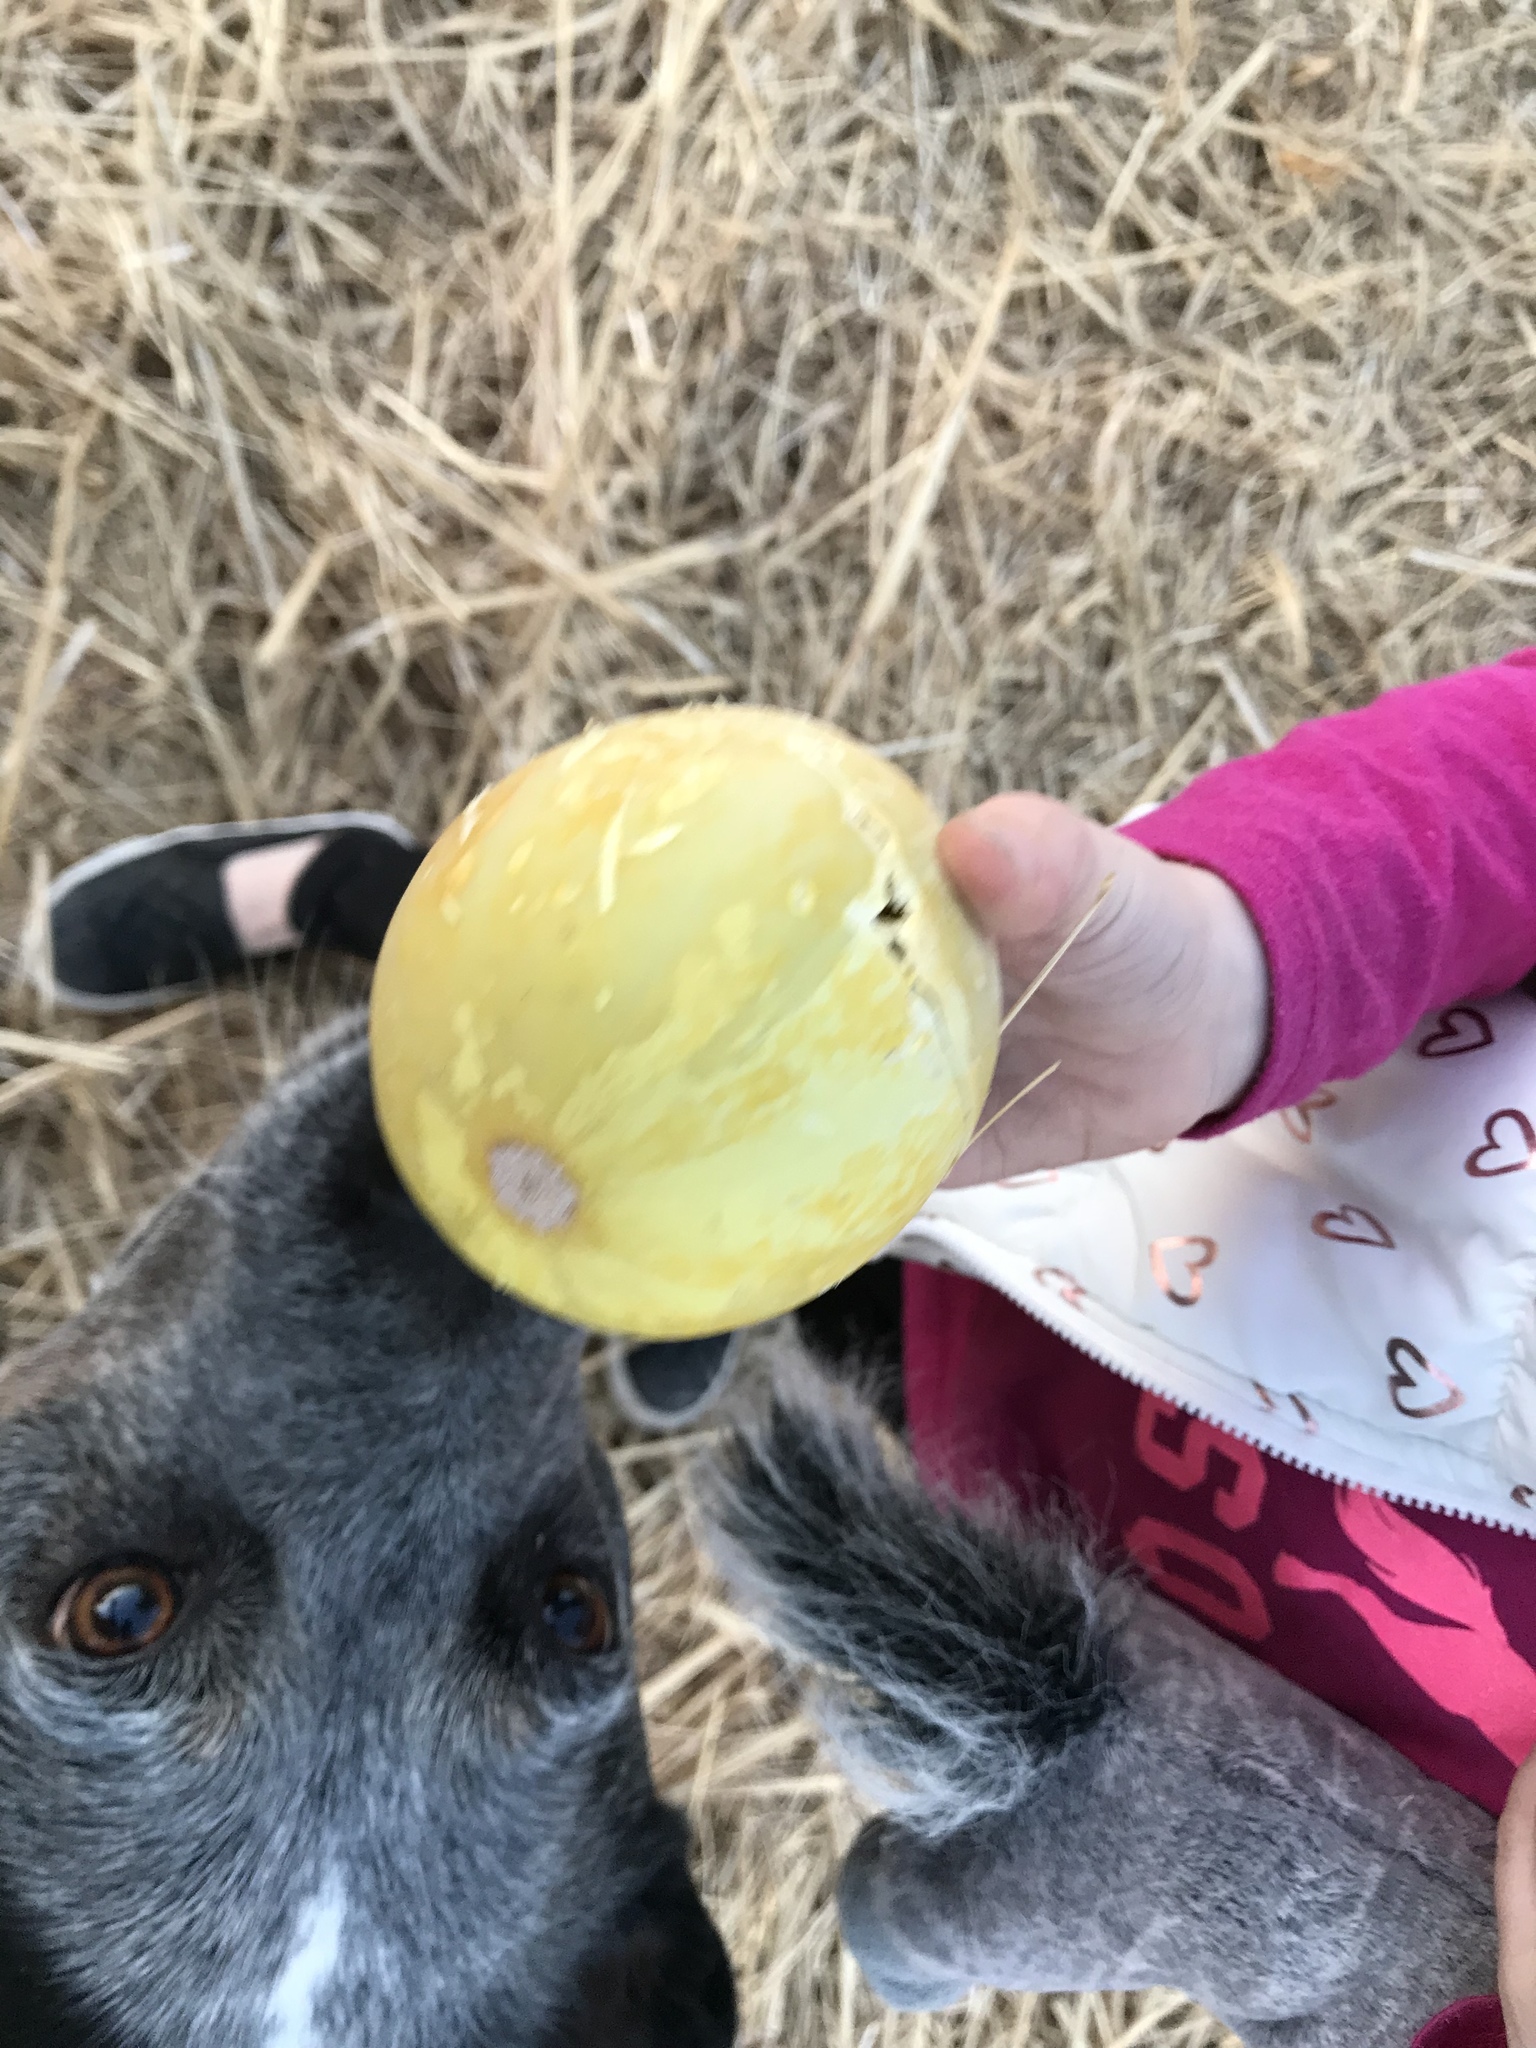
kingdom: Plantae
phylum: Tracheophyta
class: Magnoliopsida
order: Cucurbitales
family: Cucurbitaceae
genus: Cucurbita
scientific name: Cucurbita foetidissima
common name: Buffalo gourd
